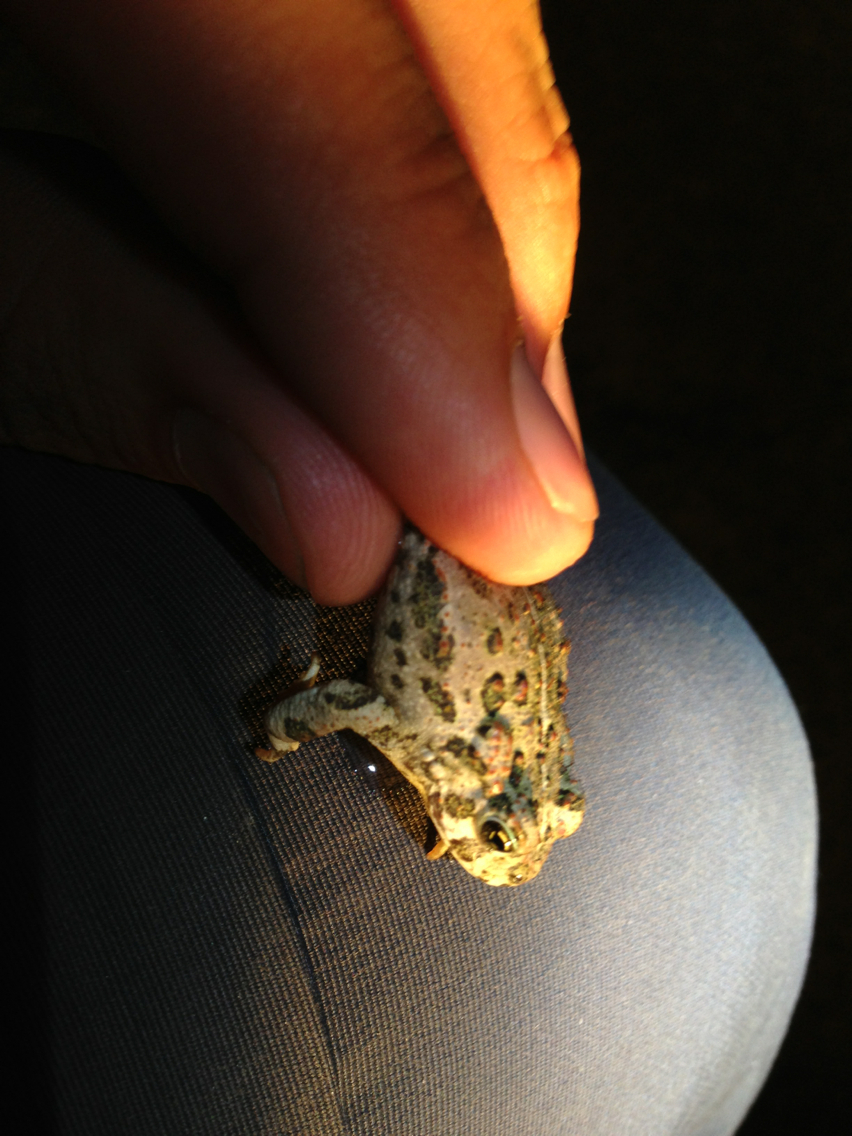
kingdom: Animalia
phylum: Chordata
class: Amphibia
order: Anura
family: Bufonidae
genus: Anaxyrus
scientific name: Anaxyrus boreas
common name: Western toad
